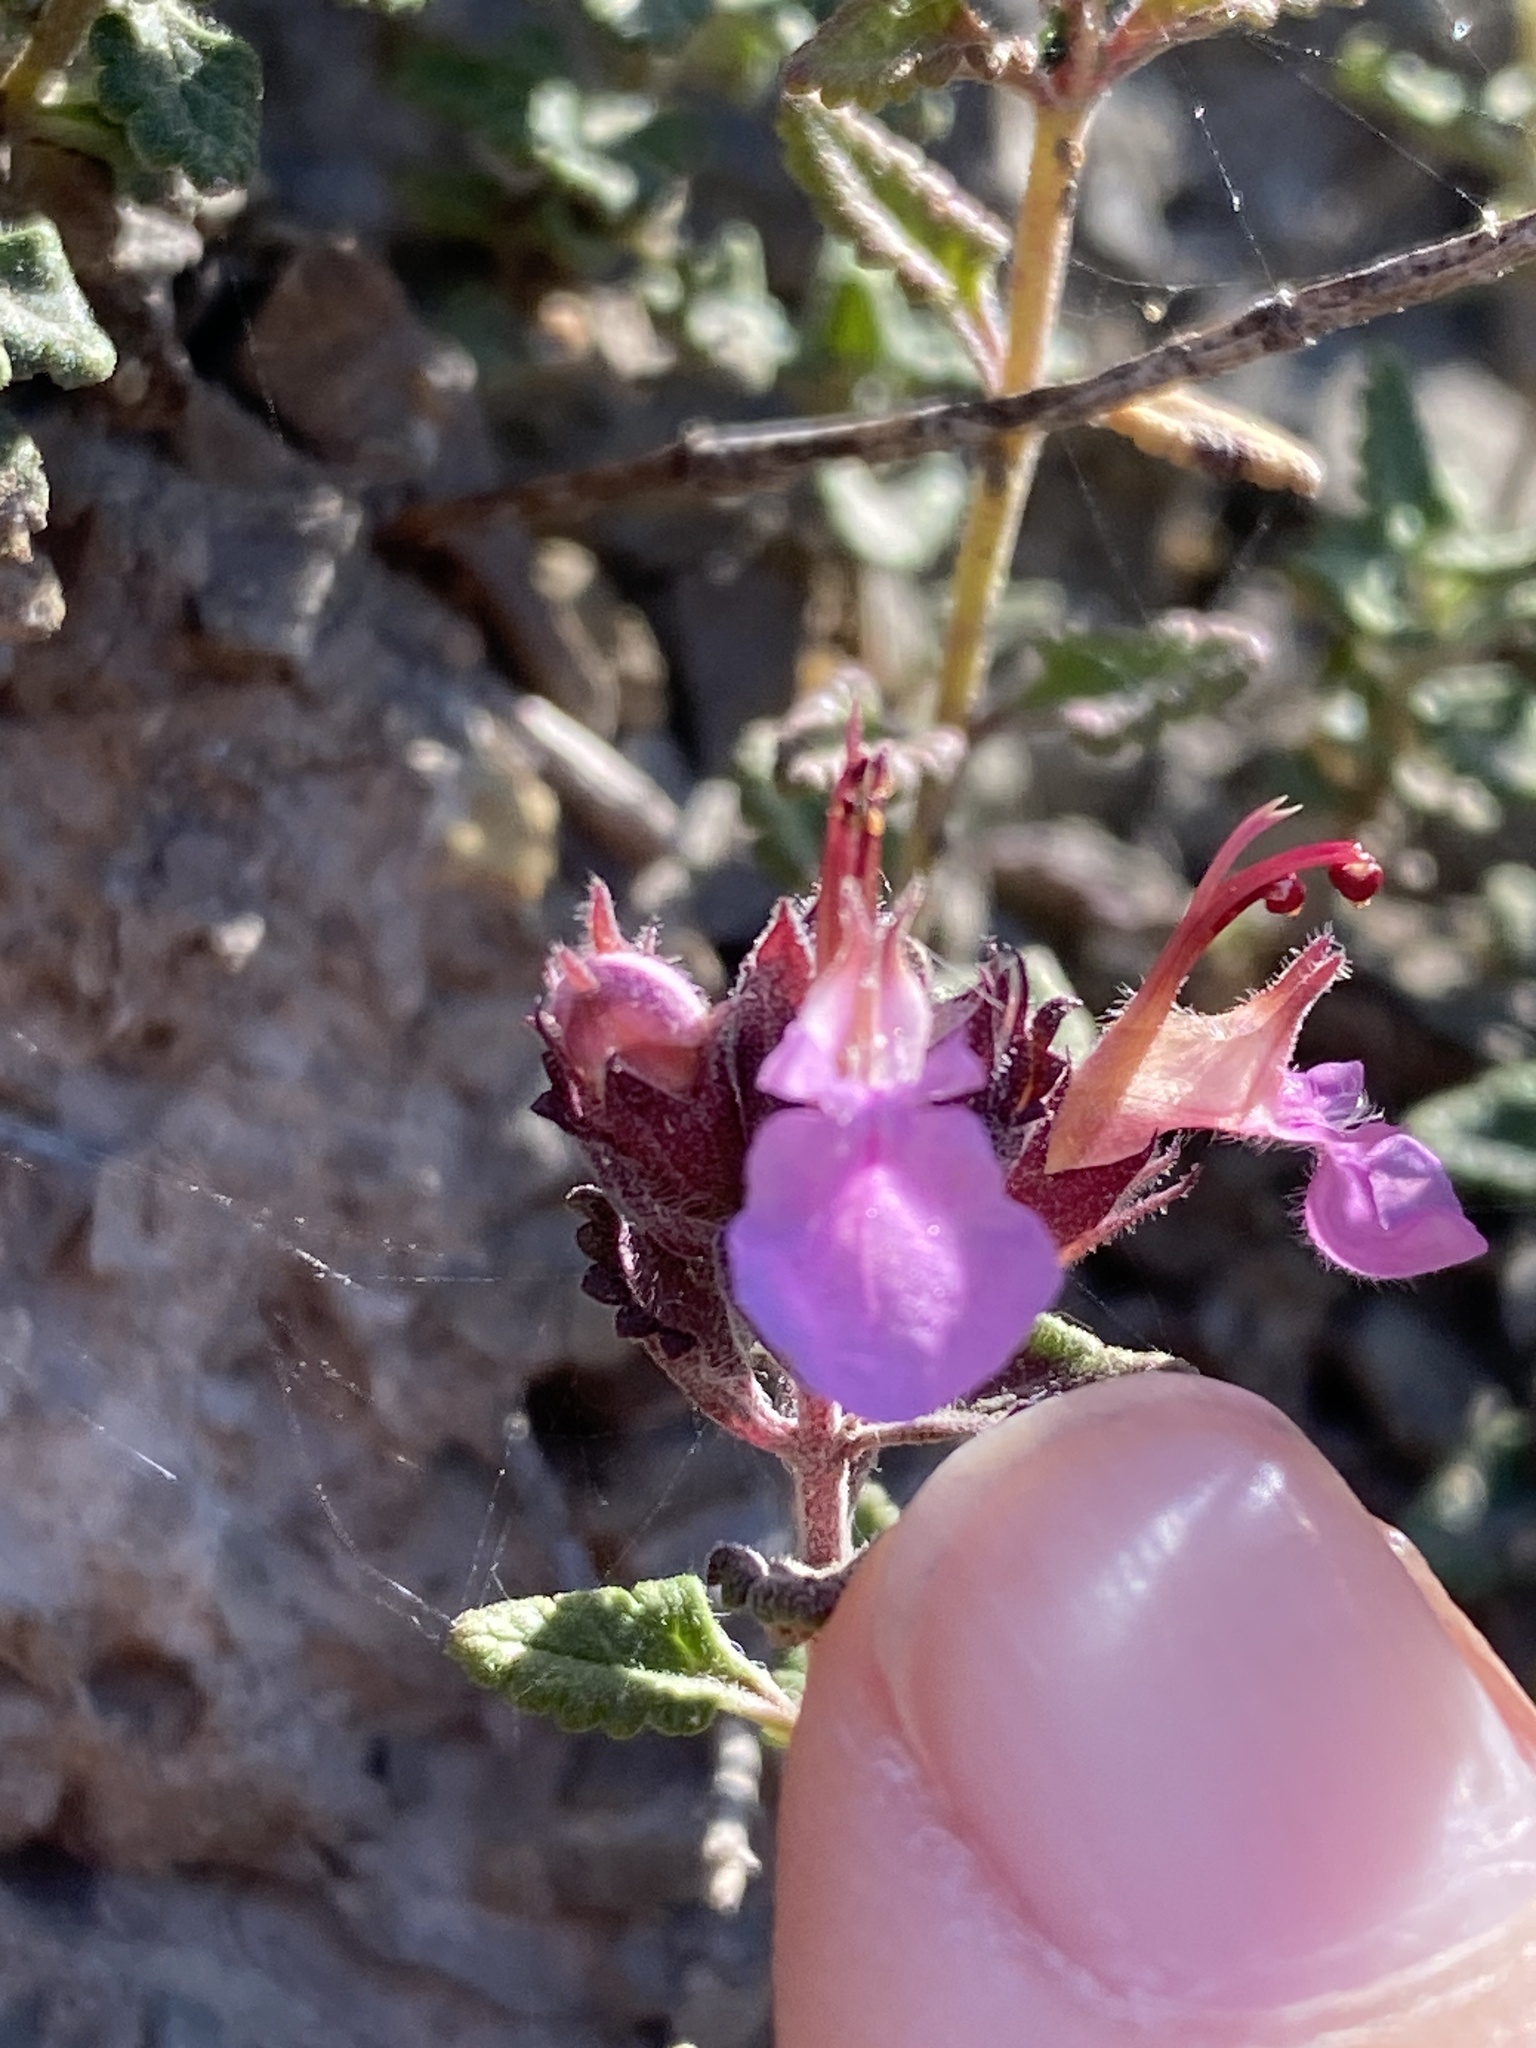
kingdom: Plantae
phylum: Tracheophyta
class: Magnoliopsida
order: Lamiales
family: Lamiaceae
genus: Teucrium
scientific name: Teucrium chamaedrys
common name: Wall germander
